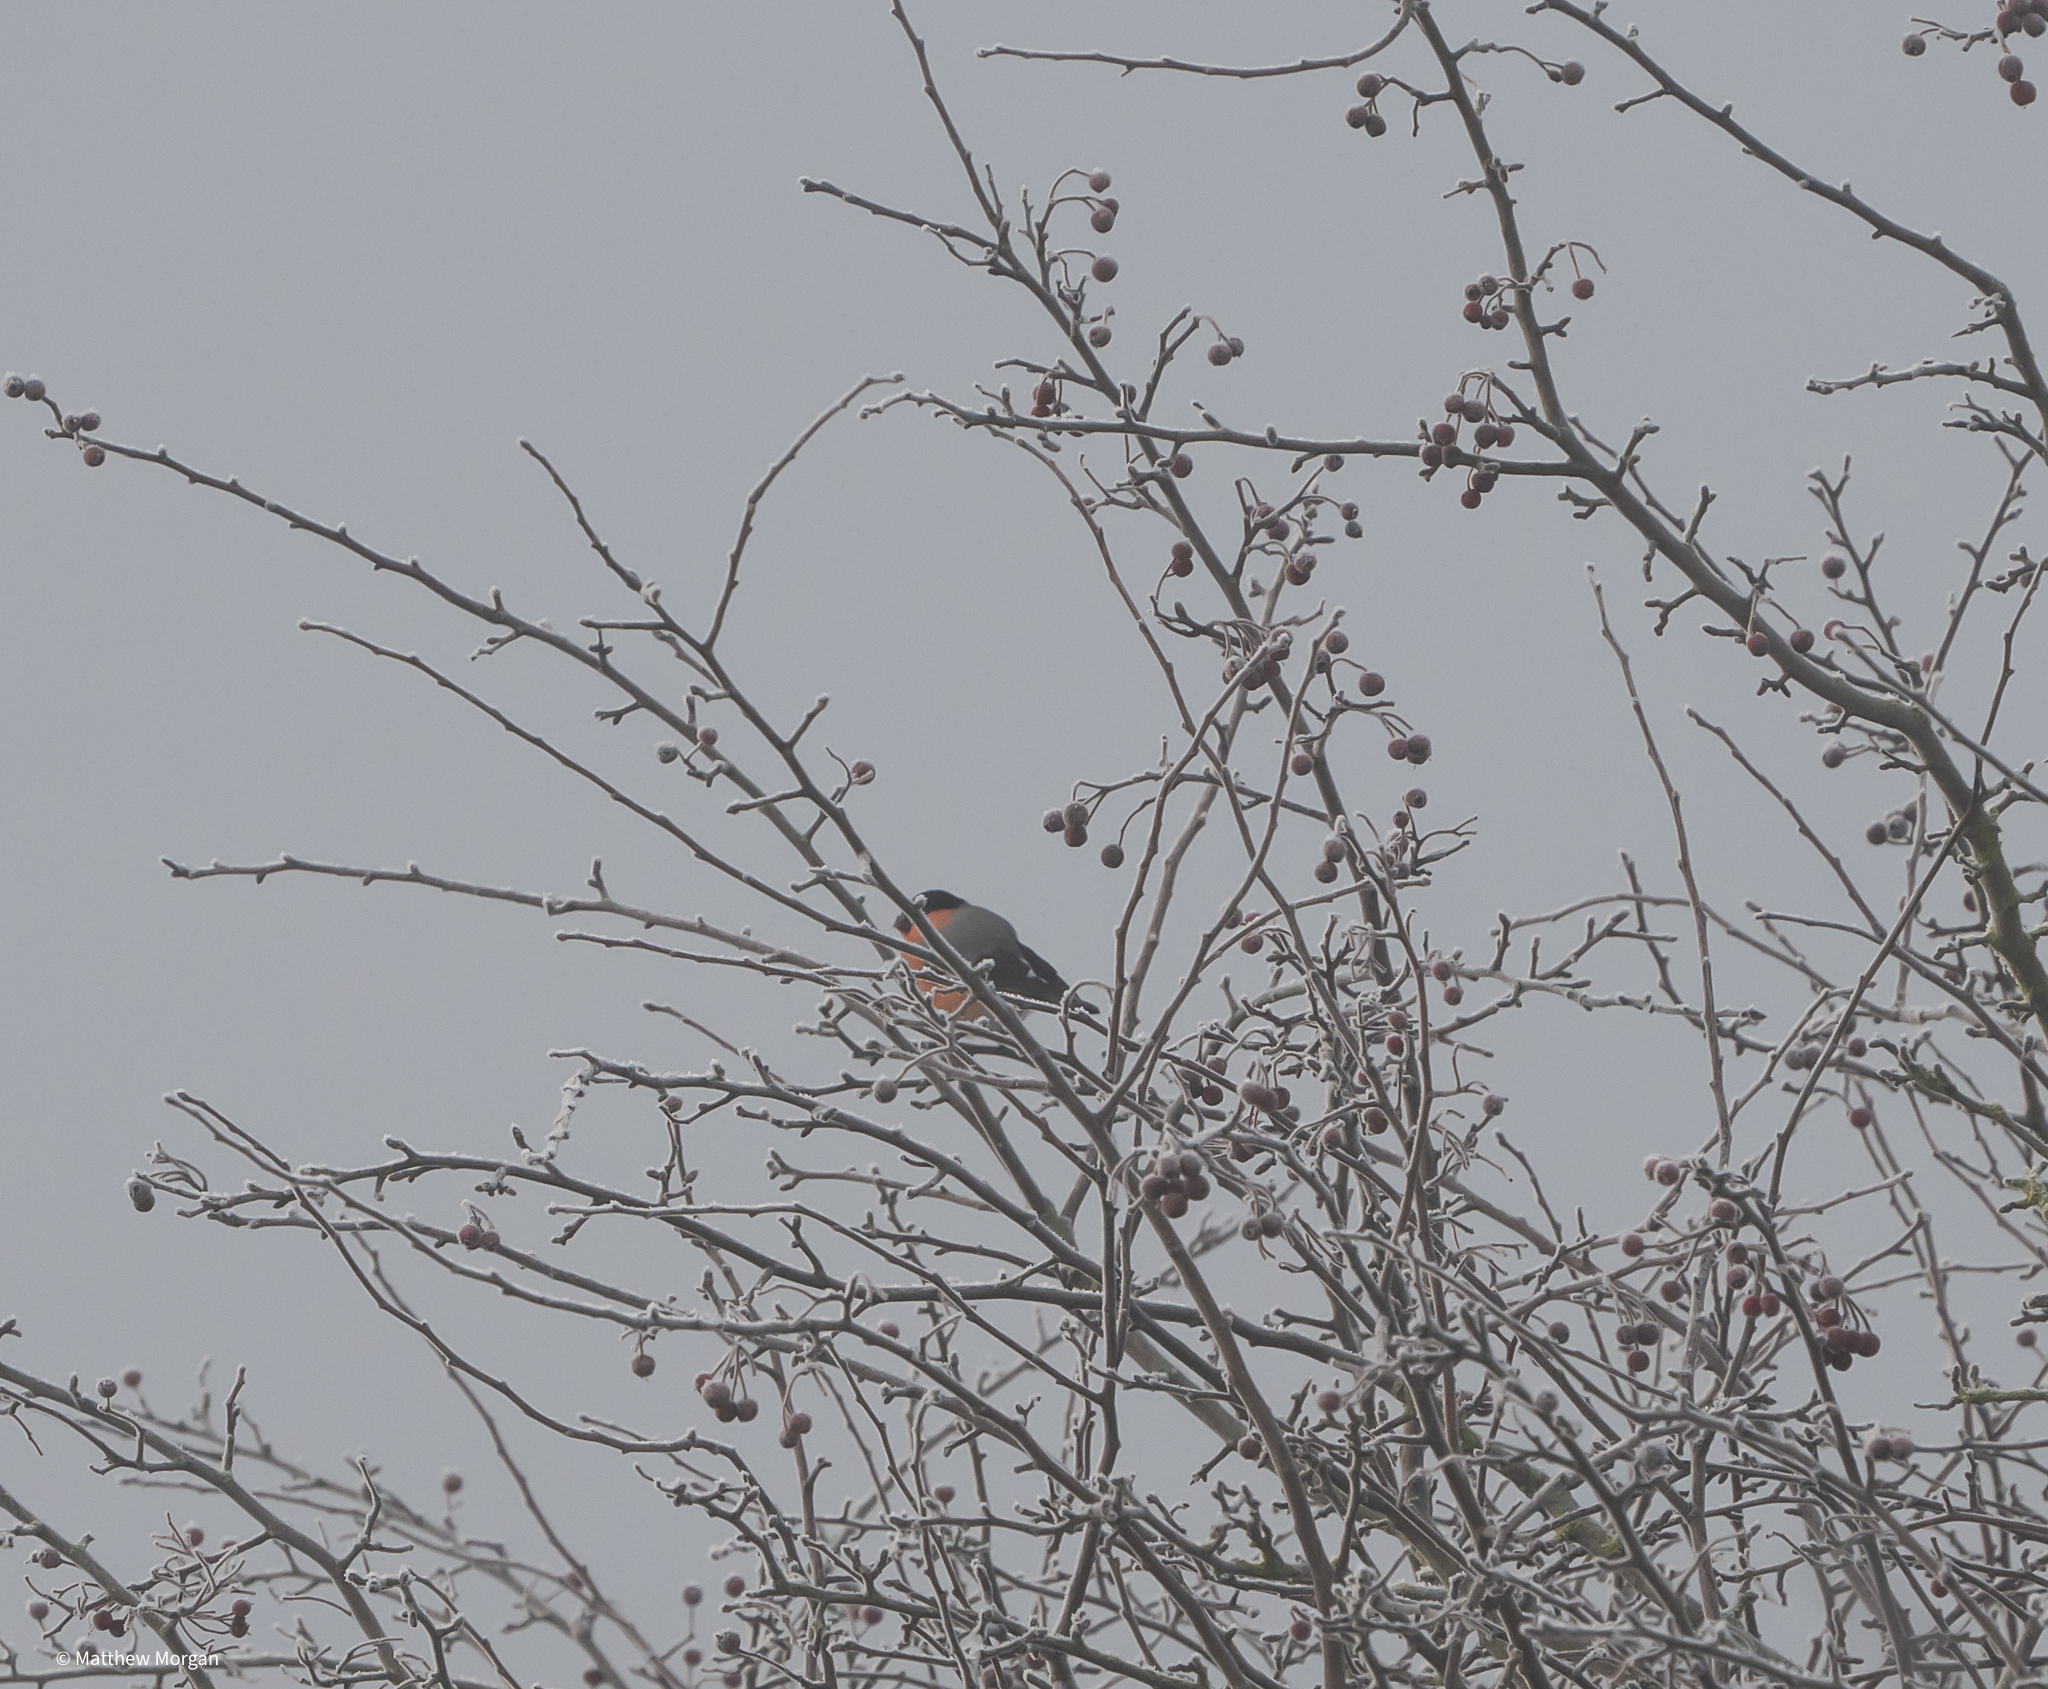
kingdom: Animalia
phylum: Chordata
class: Aves
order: Passeriformes
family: Fringillidae
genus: Pyrrhula
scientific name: Pyrrhula pyrrhula
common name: Eurasian bullfinch
